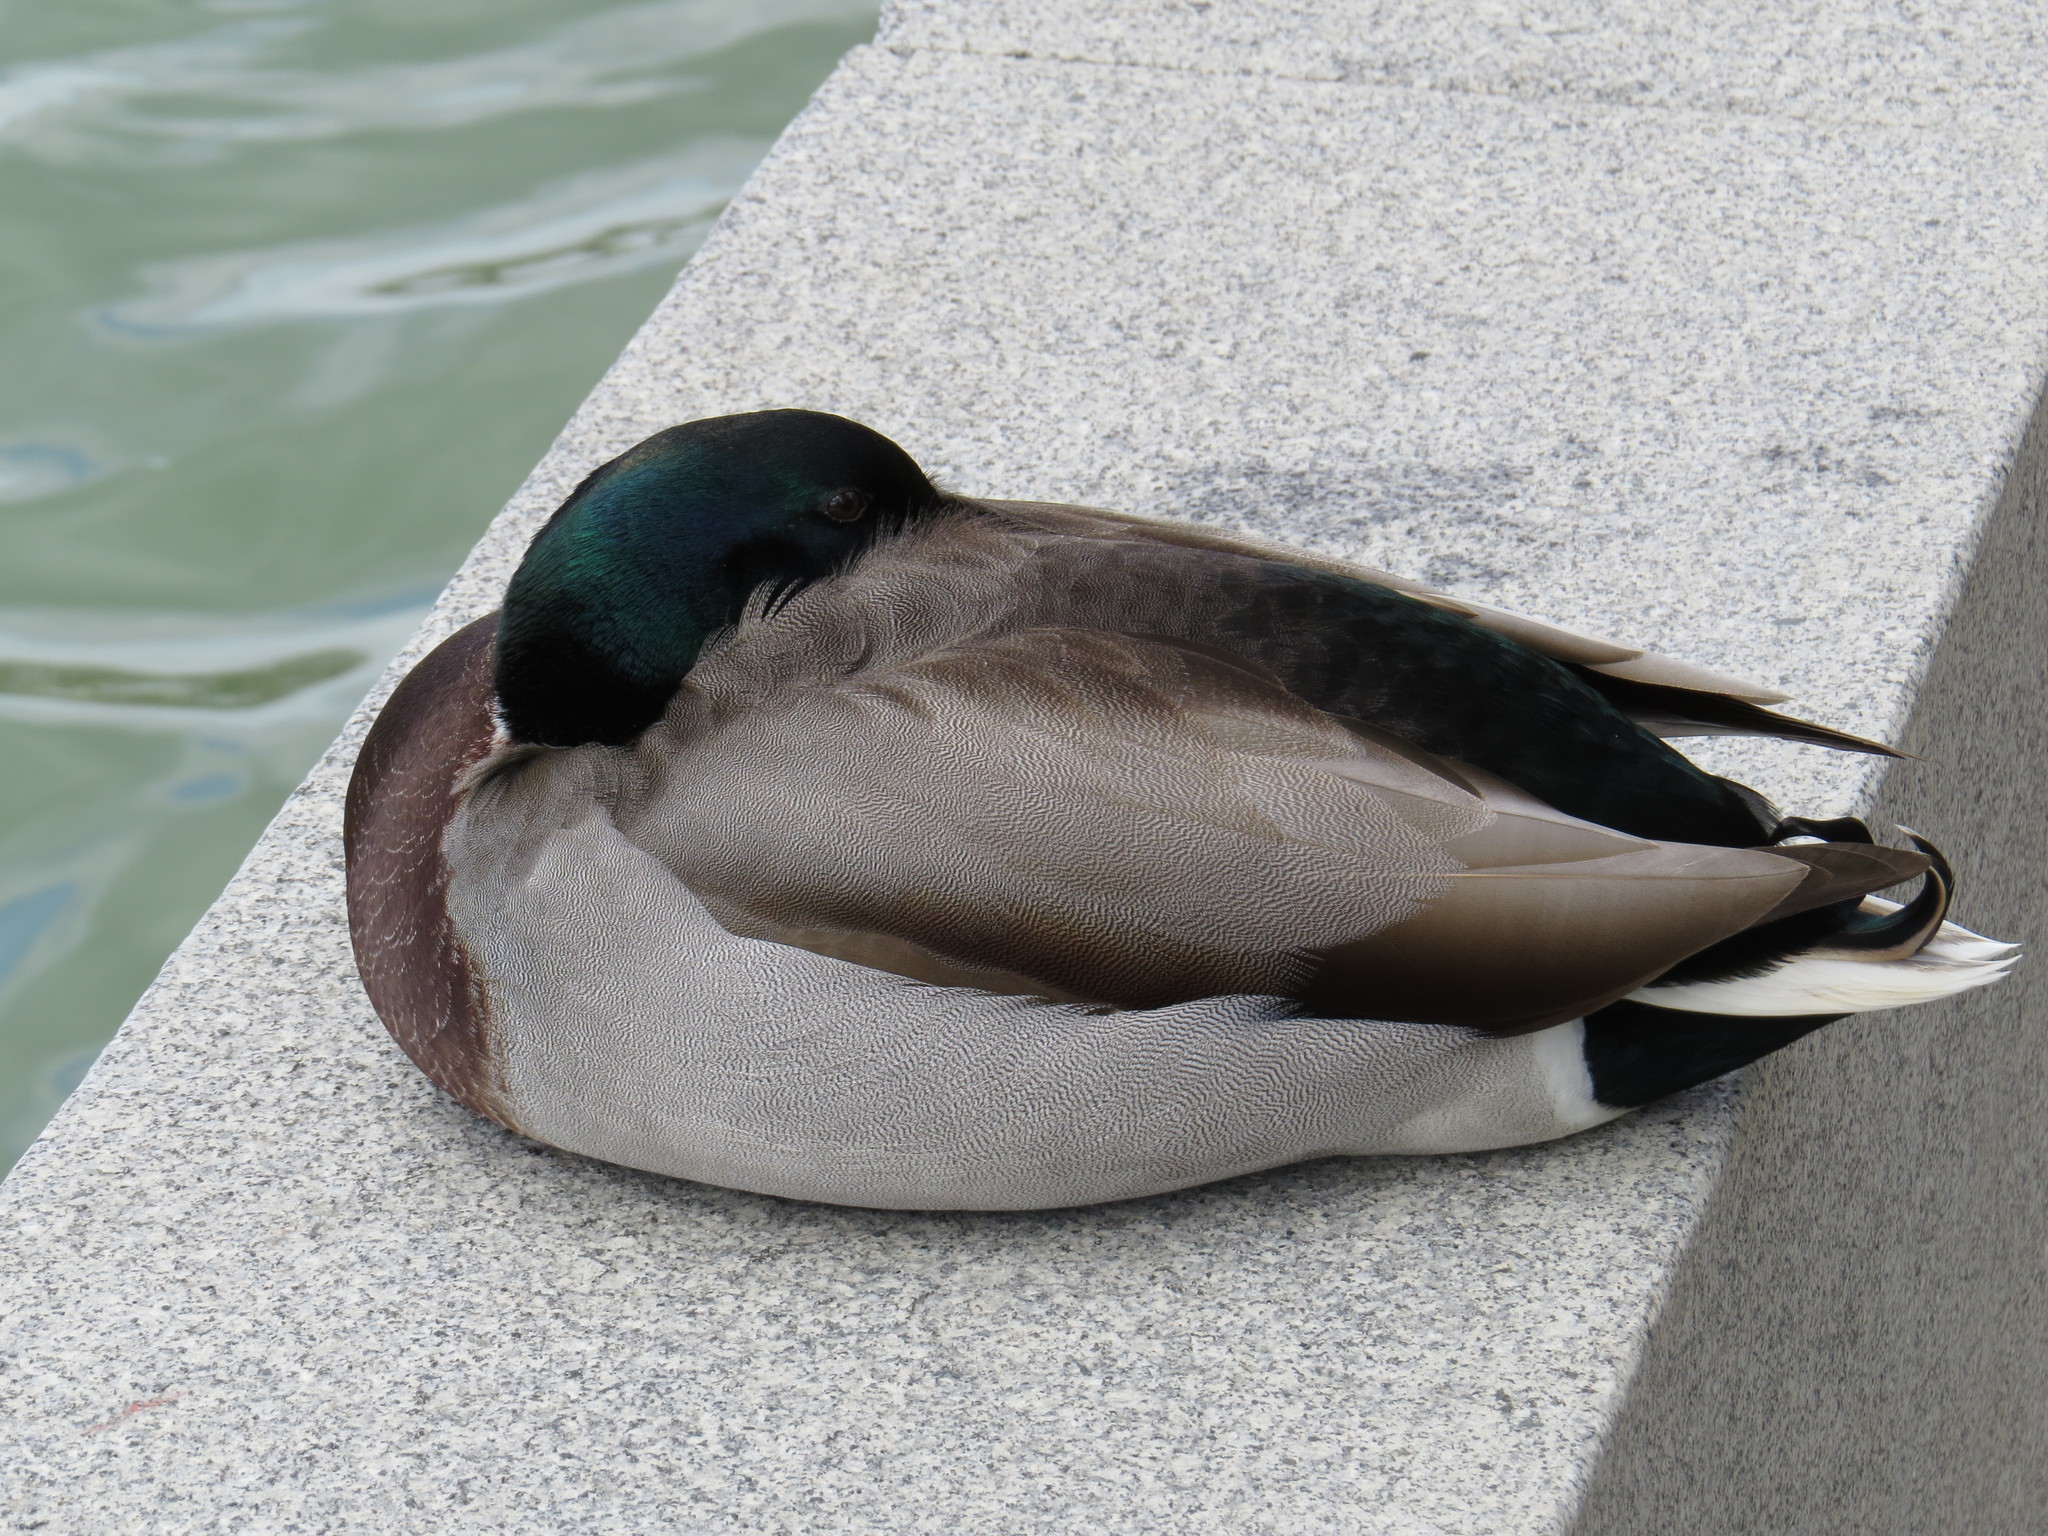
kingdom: Animalia
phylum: Chordata
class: Aves
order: Anseriformes
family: Anatidae
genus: Anas
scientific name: Anas platyrhynchos
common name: Mallard
